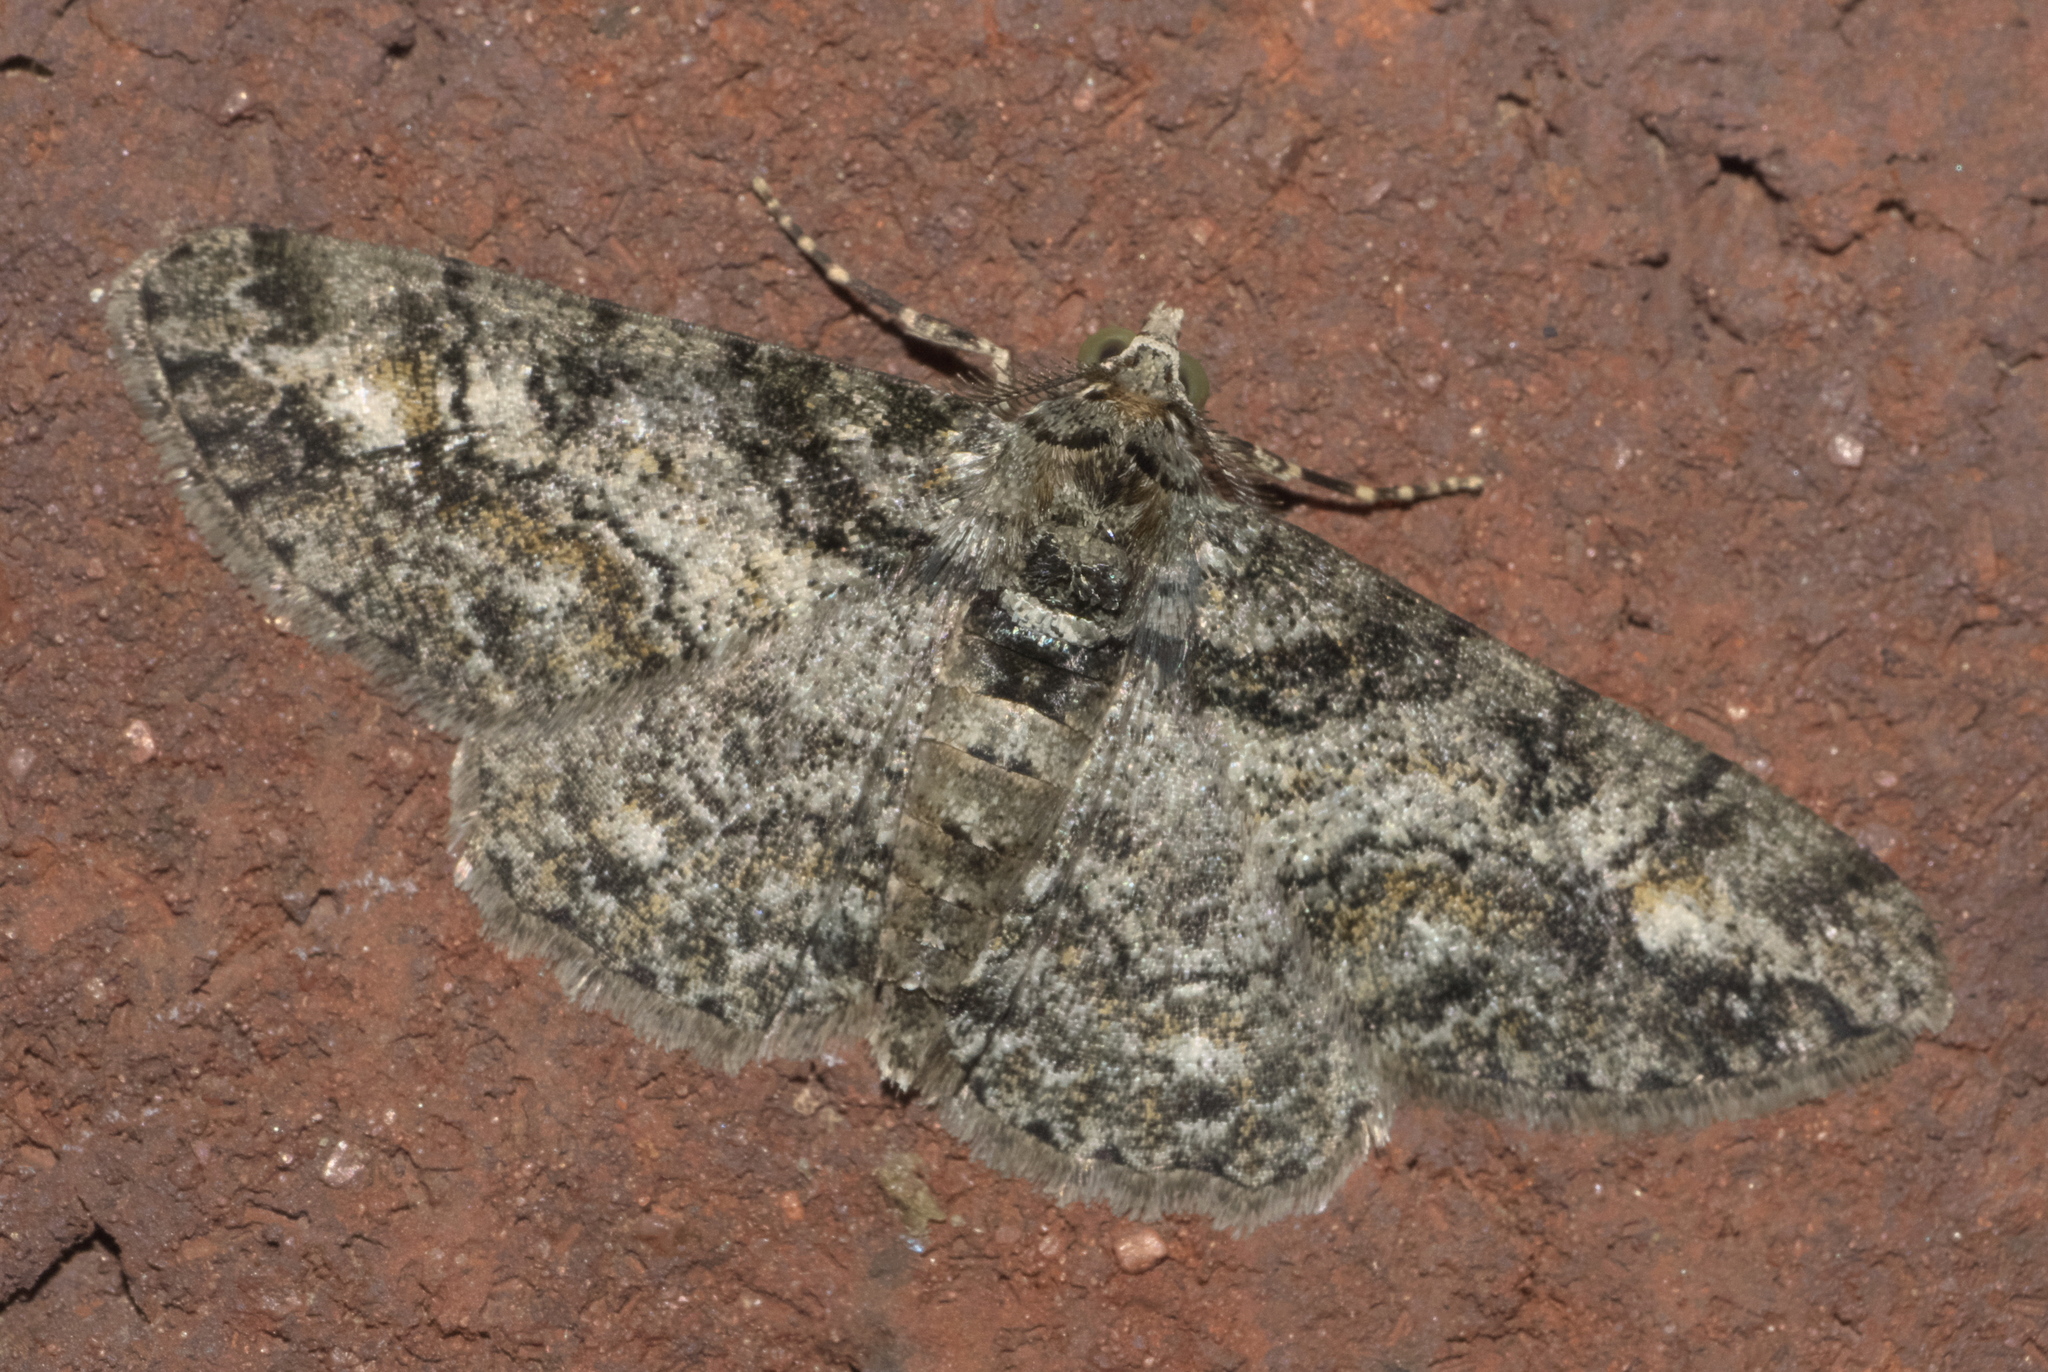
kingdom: Animalia
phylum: Arthropoda
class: Insecta
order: Lepidoptera
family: Geometridae
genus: Cleora
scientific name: Cleora sublunaria
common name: Double-lined gray
